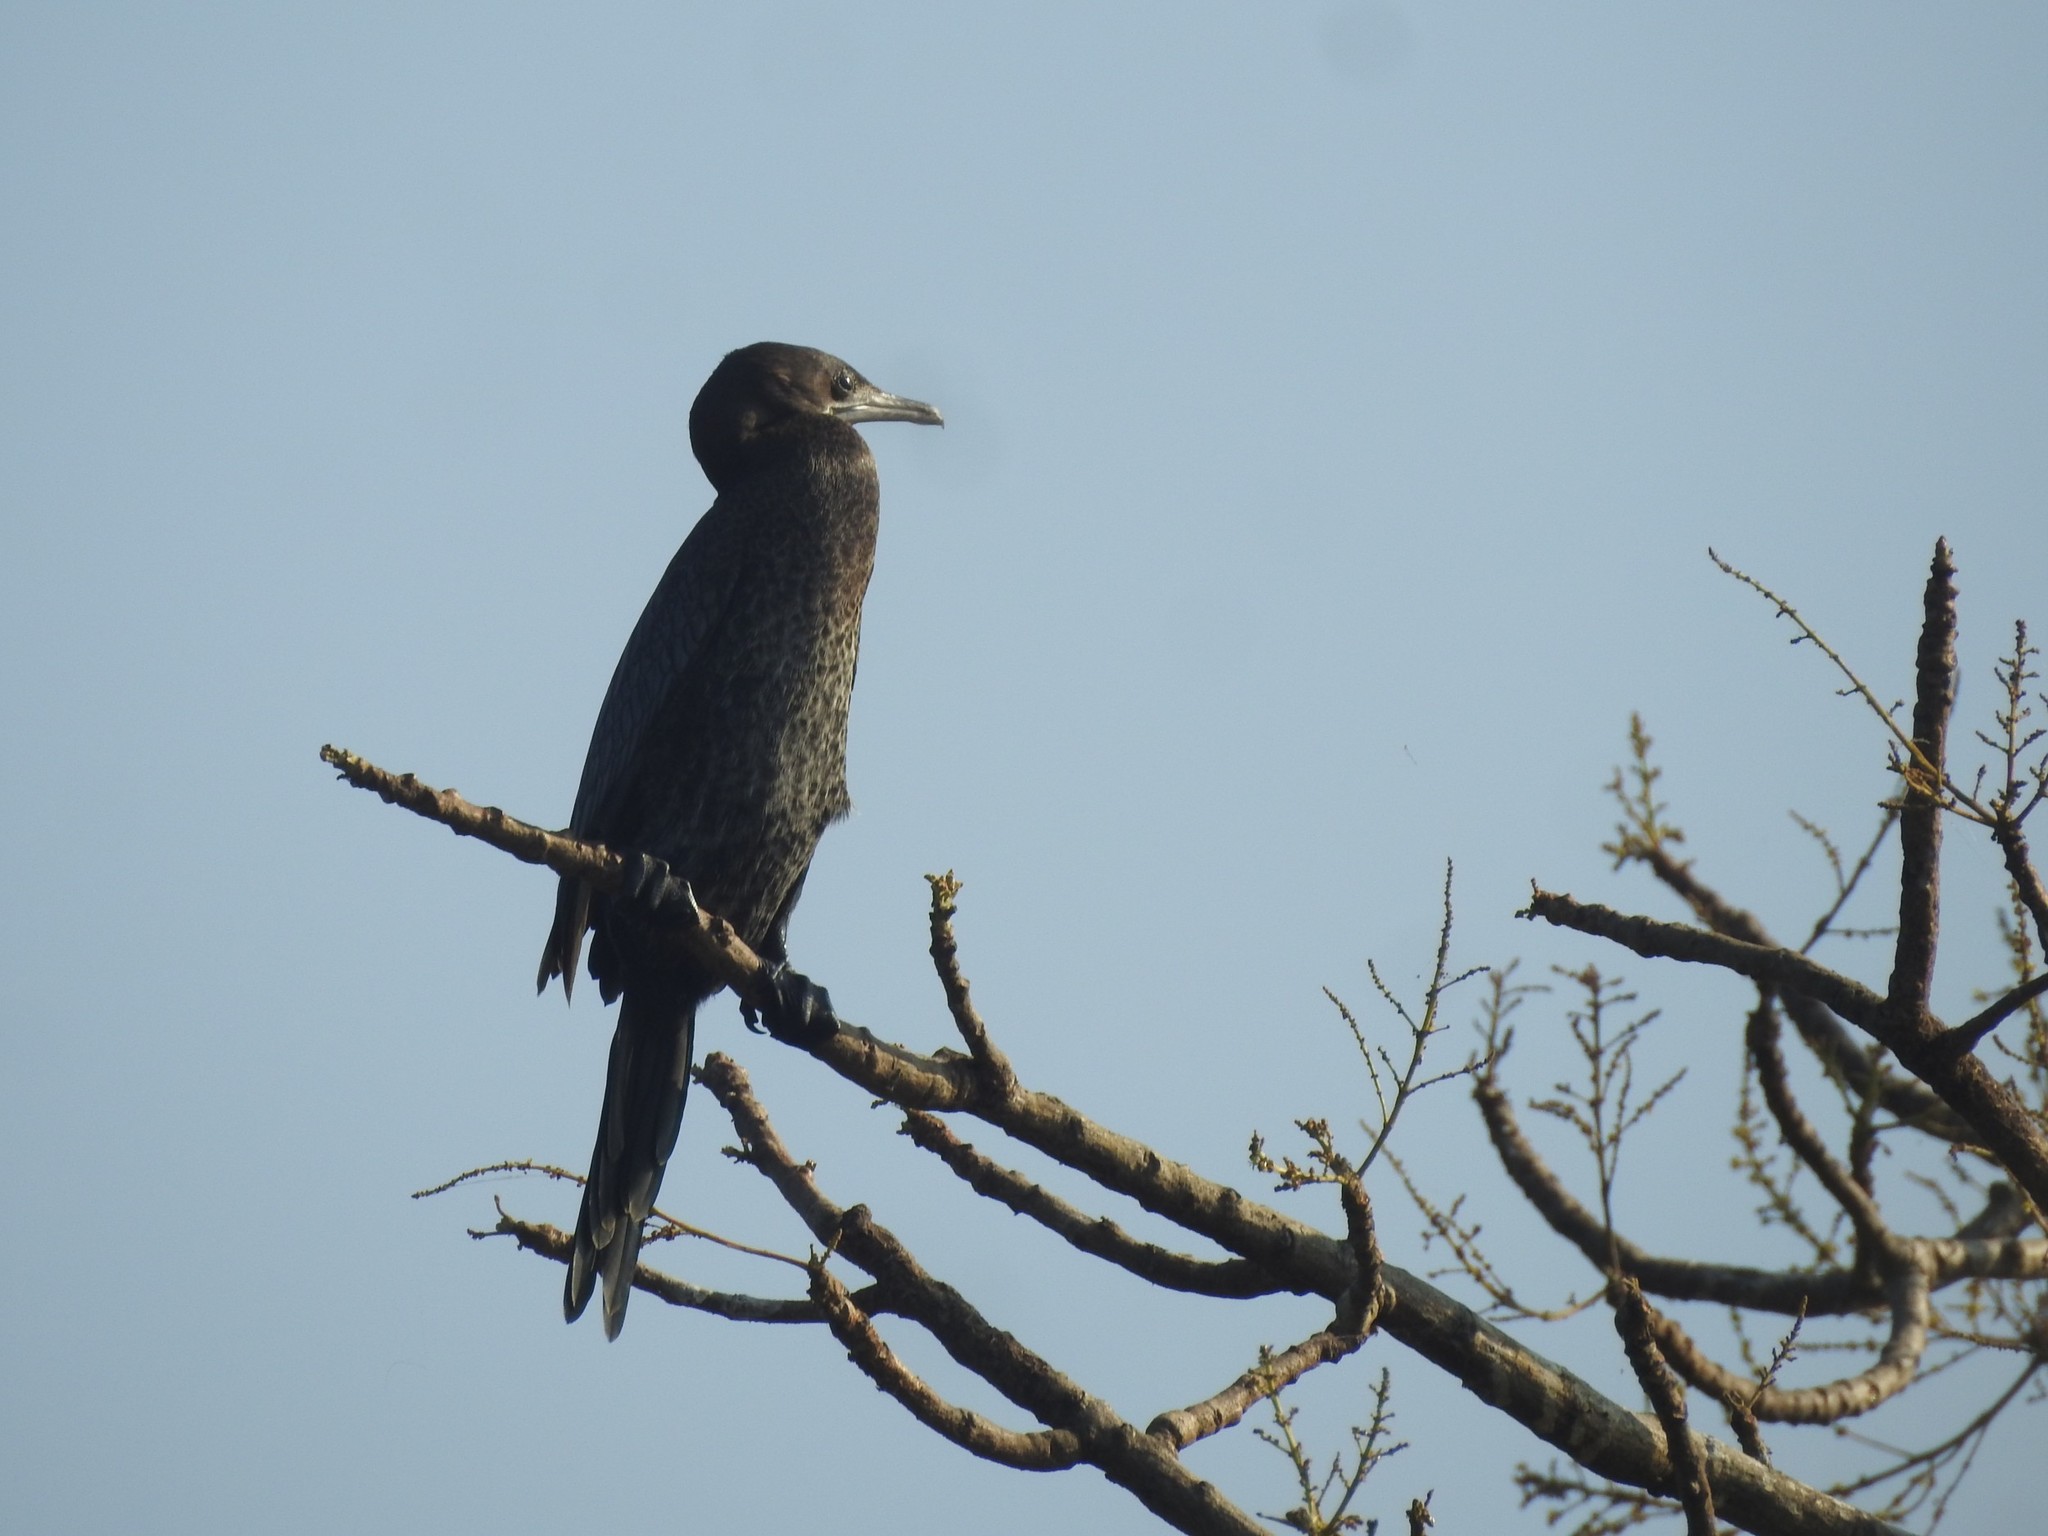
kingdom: Animalia
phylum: Chordata
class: Aves
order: Suliformes
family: Phalacrocoracidae
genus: Microcarbo
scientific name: Microcarbo niger
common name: Little cormorant
